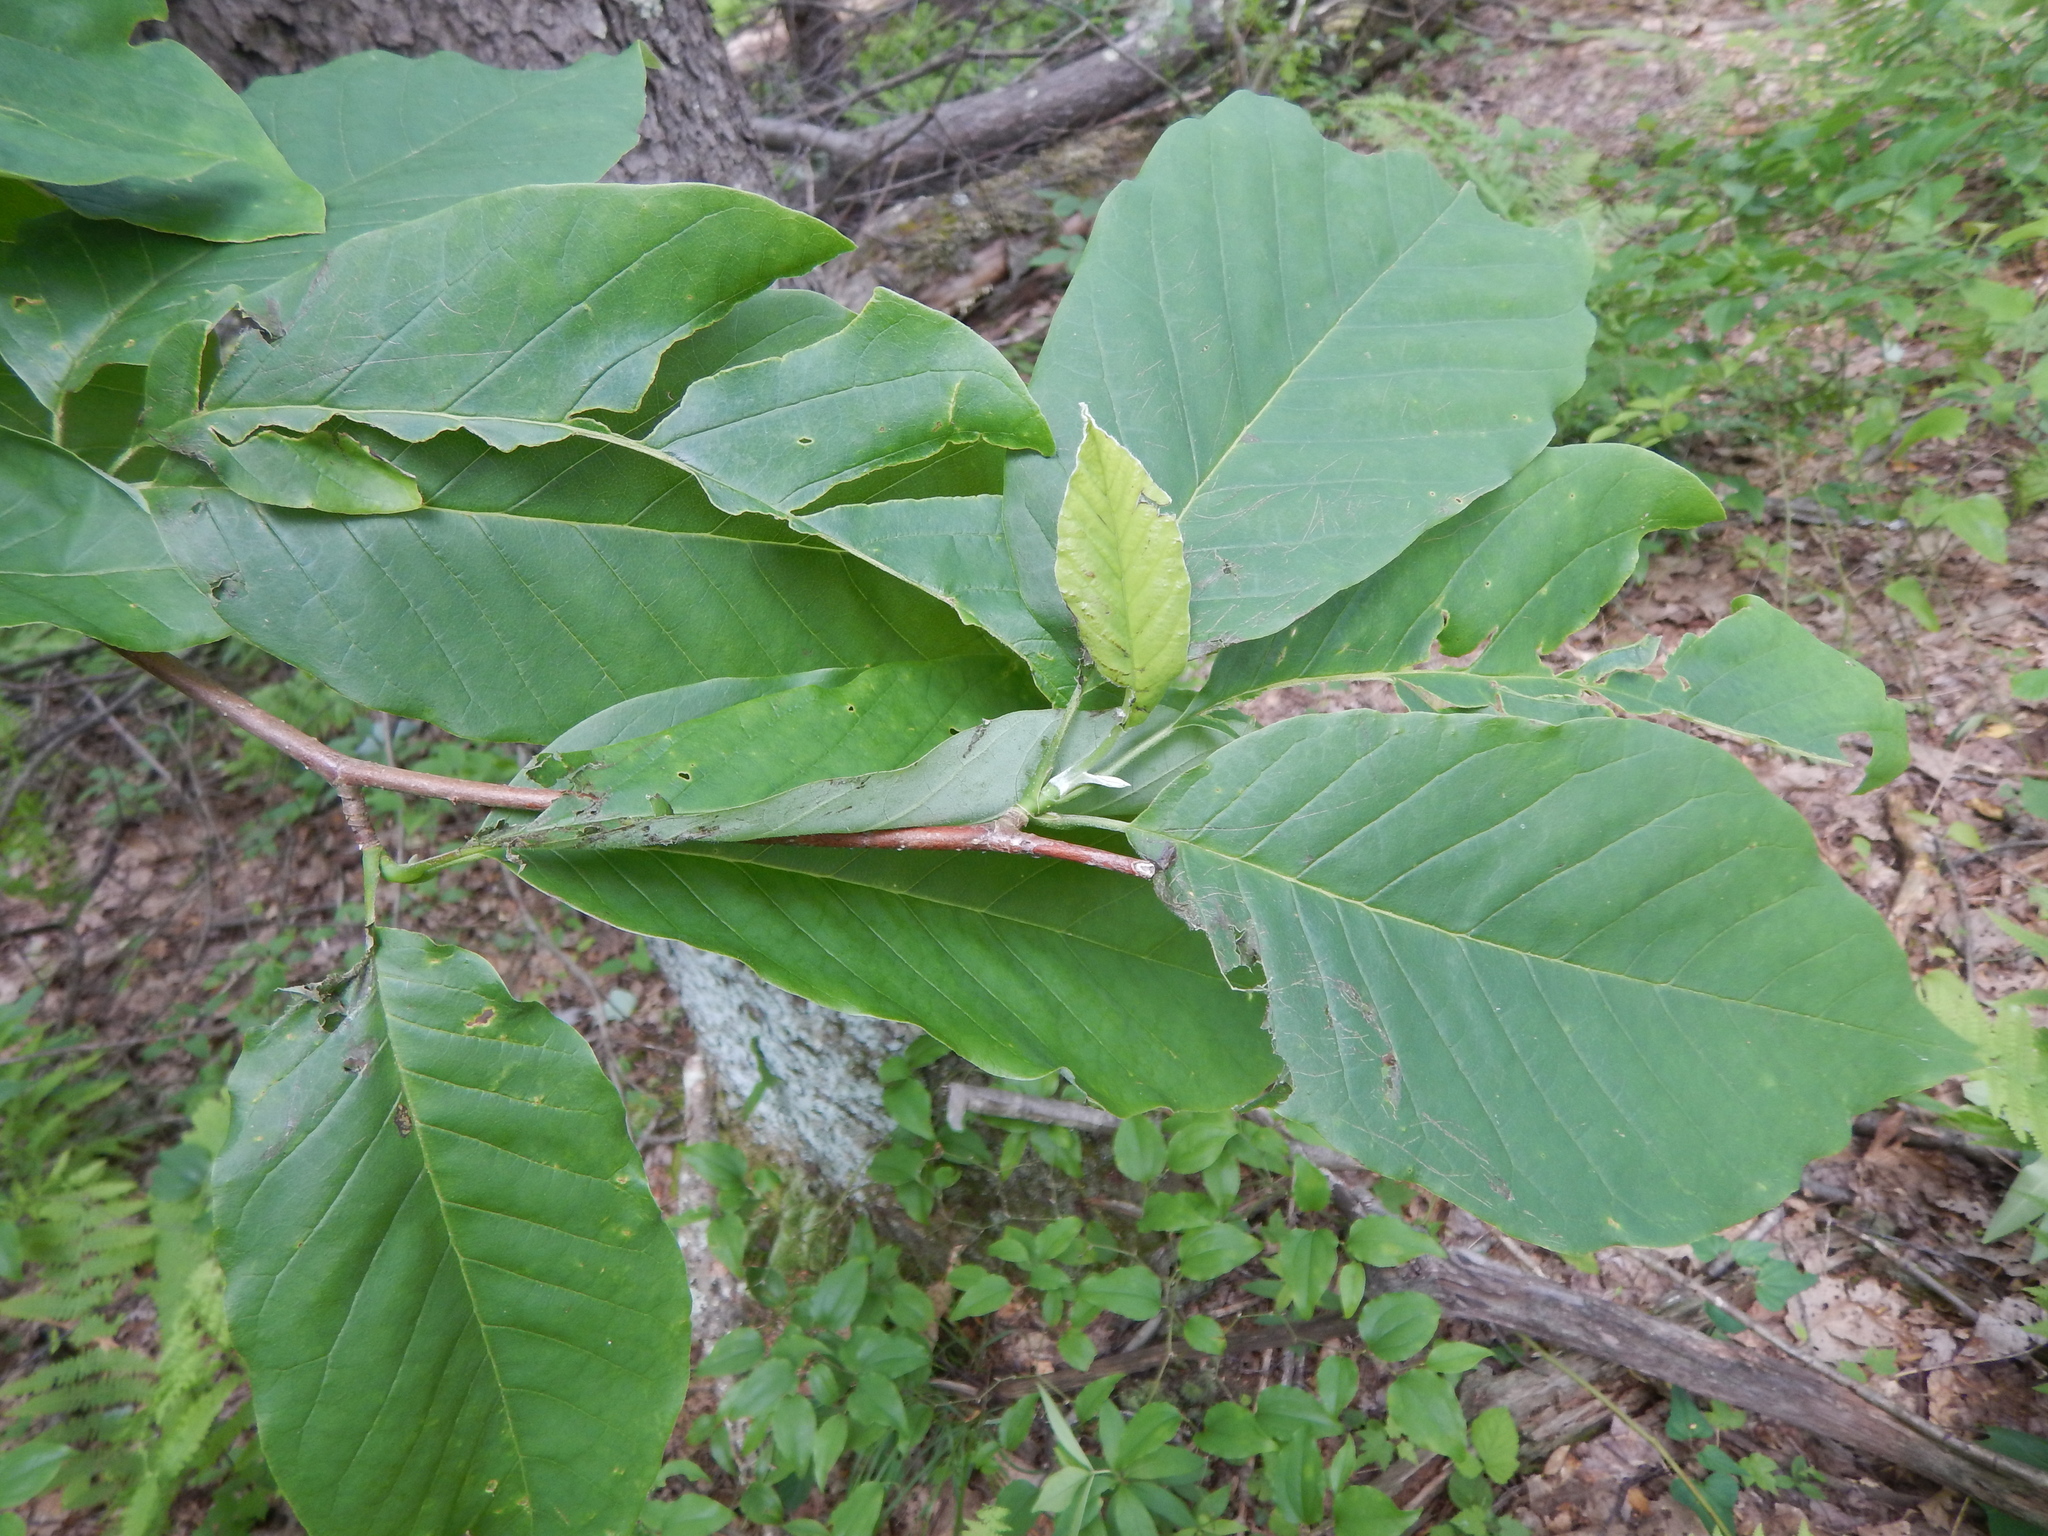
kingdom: Plantae
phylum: Tracheophyta
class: Magnoliopsida
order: Magnoliales
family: Magnoliaceae
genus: Magnolia
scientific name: Magnolia acuminata
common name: Cucumber magnolia
